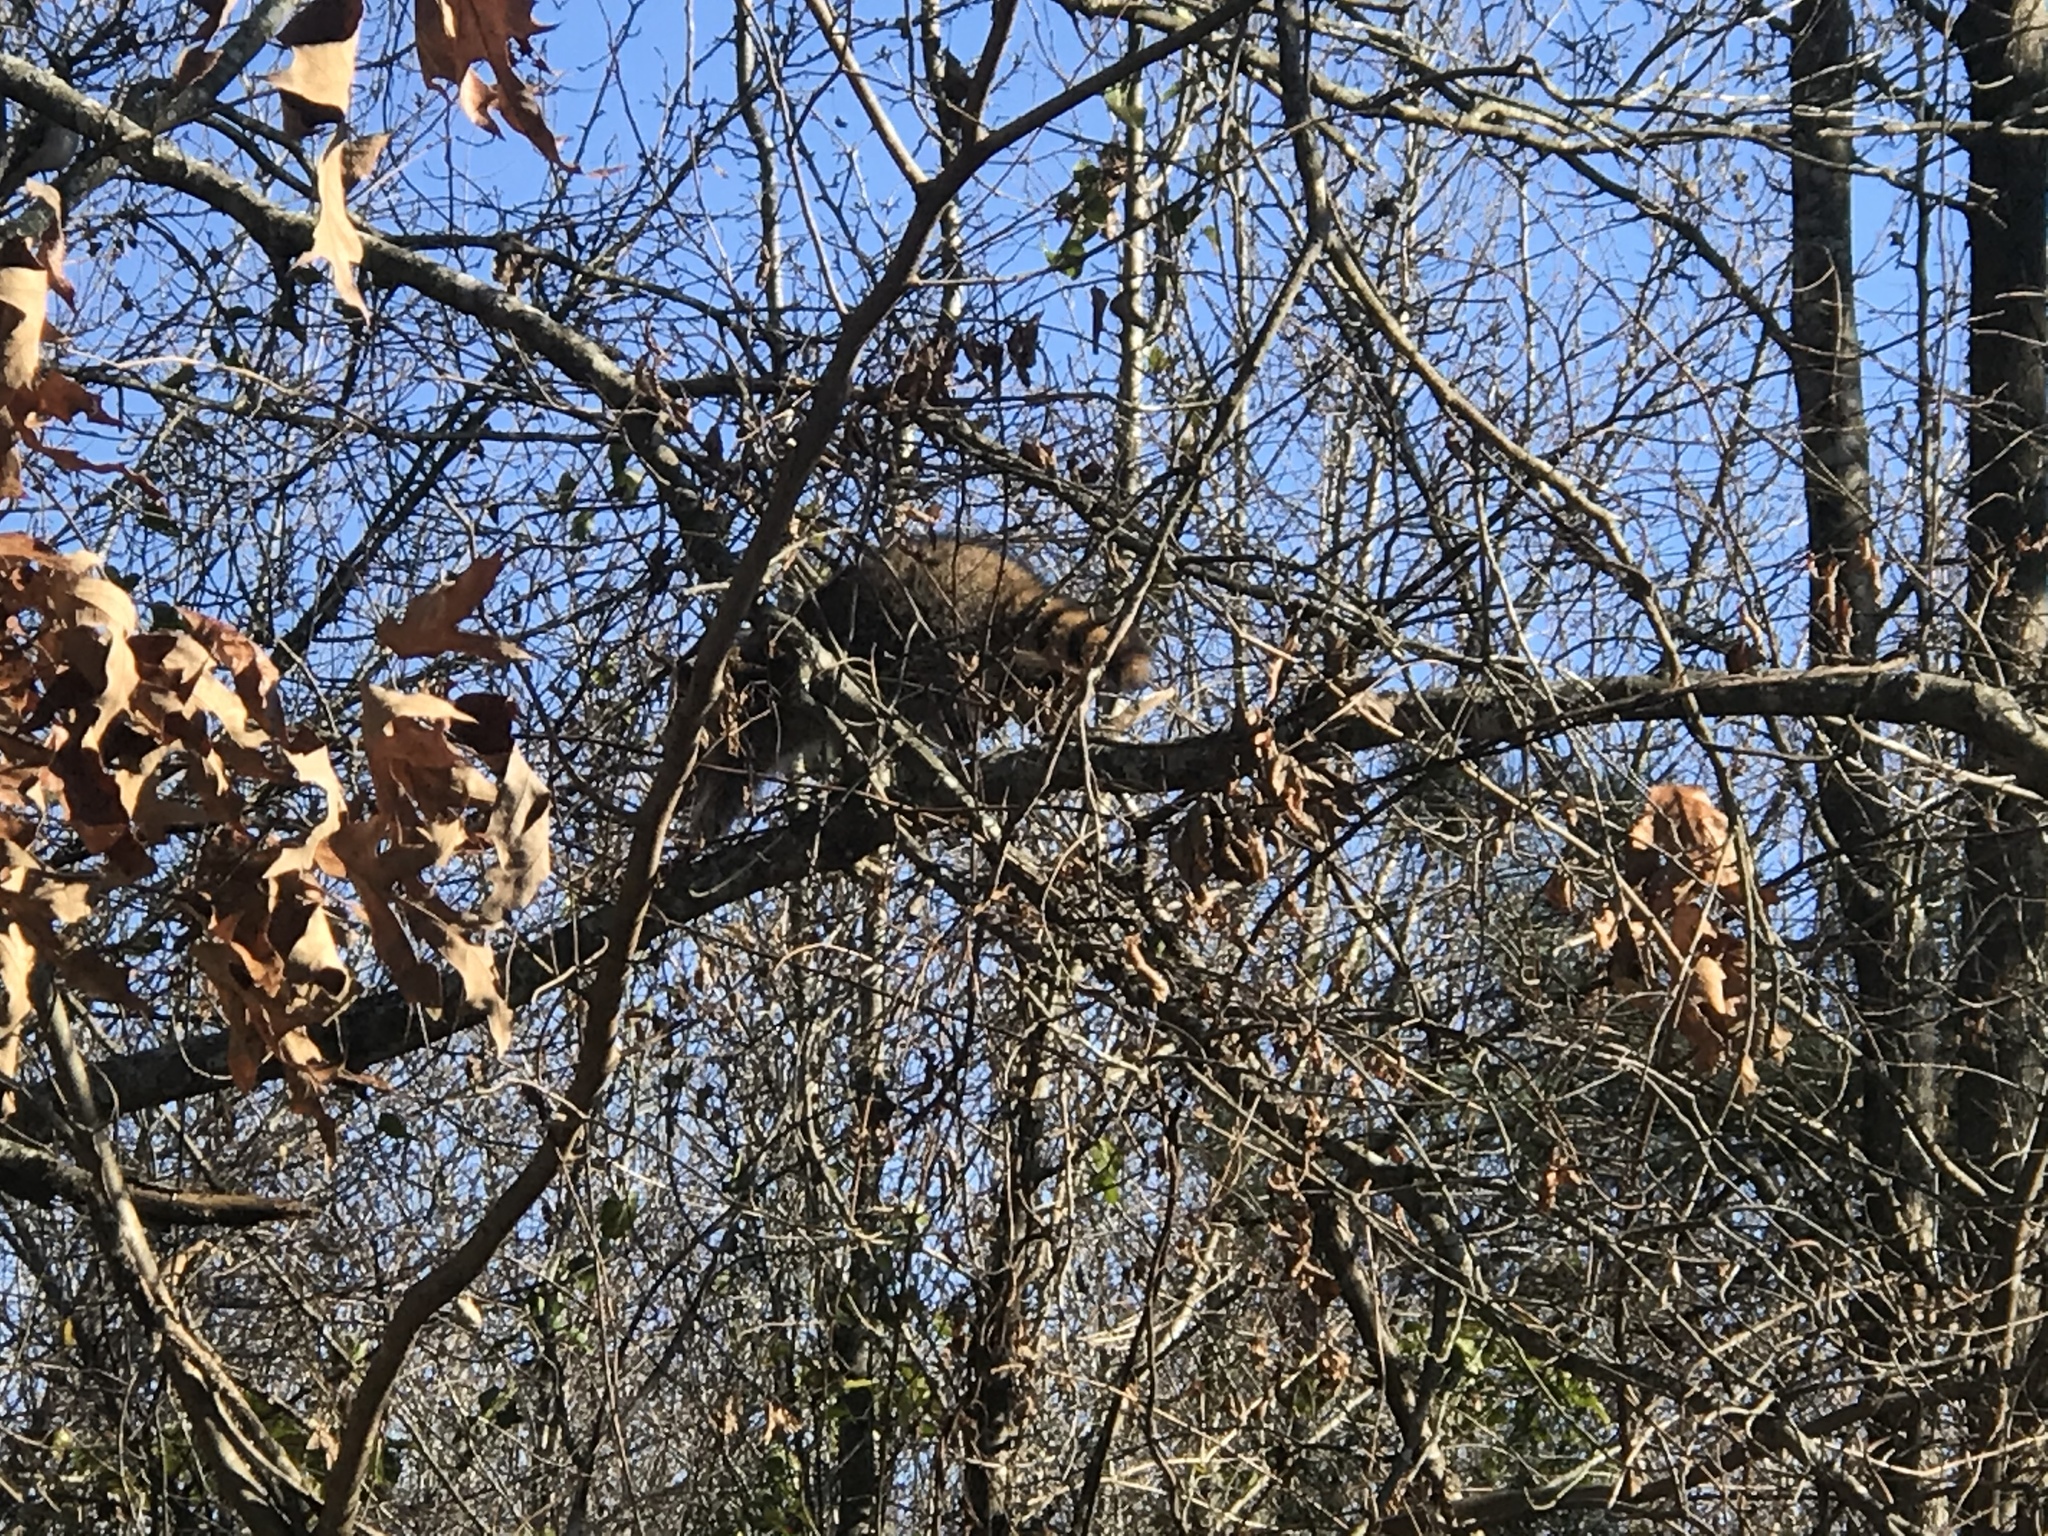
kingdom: Animalia
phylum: Chordata
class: Mammalia
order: Carnivora
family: Procyonidae
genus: Procyon
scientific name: Procyon lotor
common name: Raccoon
